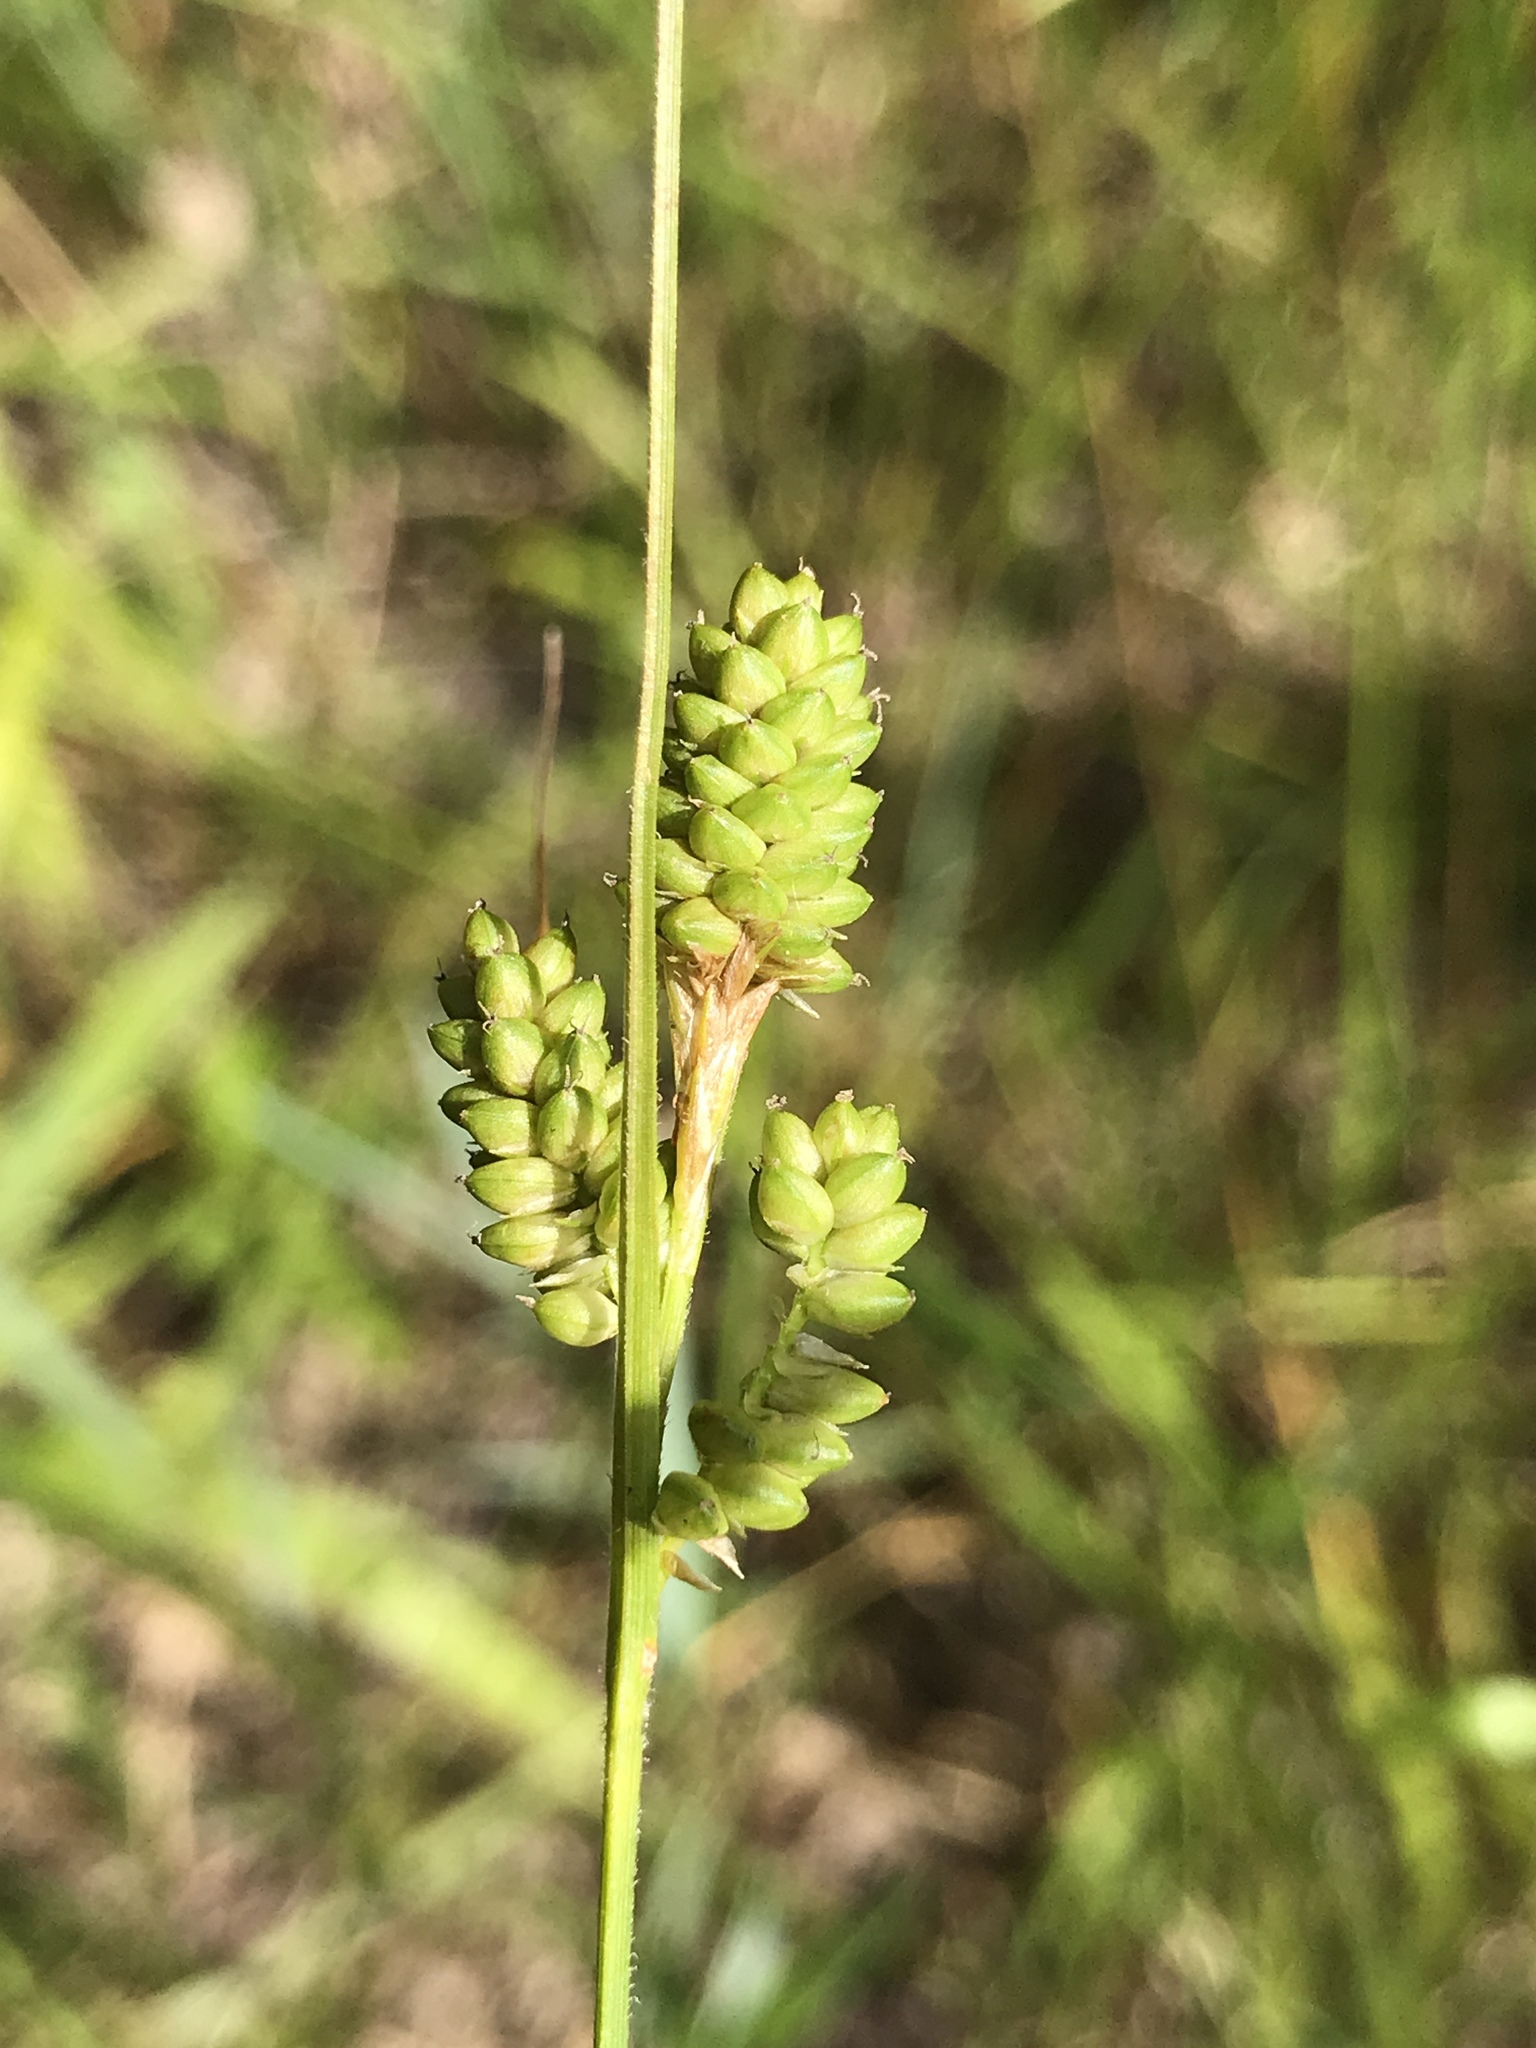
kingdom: Plantae
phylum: Tracheophyta
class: Liliopsida
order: Poales
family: Cyperaceae
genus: Carex
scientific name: Carex hirsutella
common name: Fuzzy wuzzy sedge
